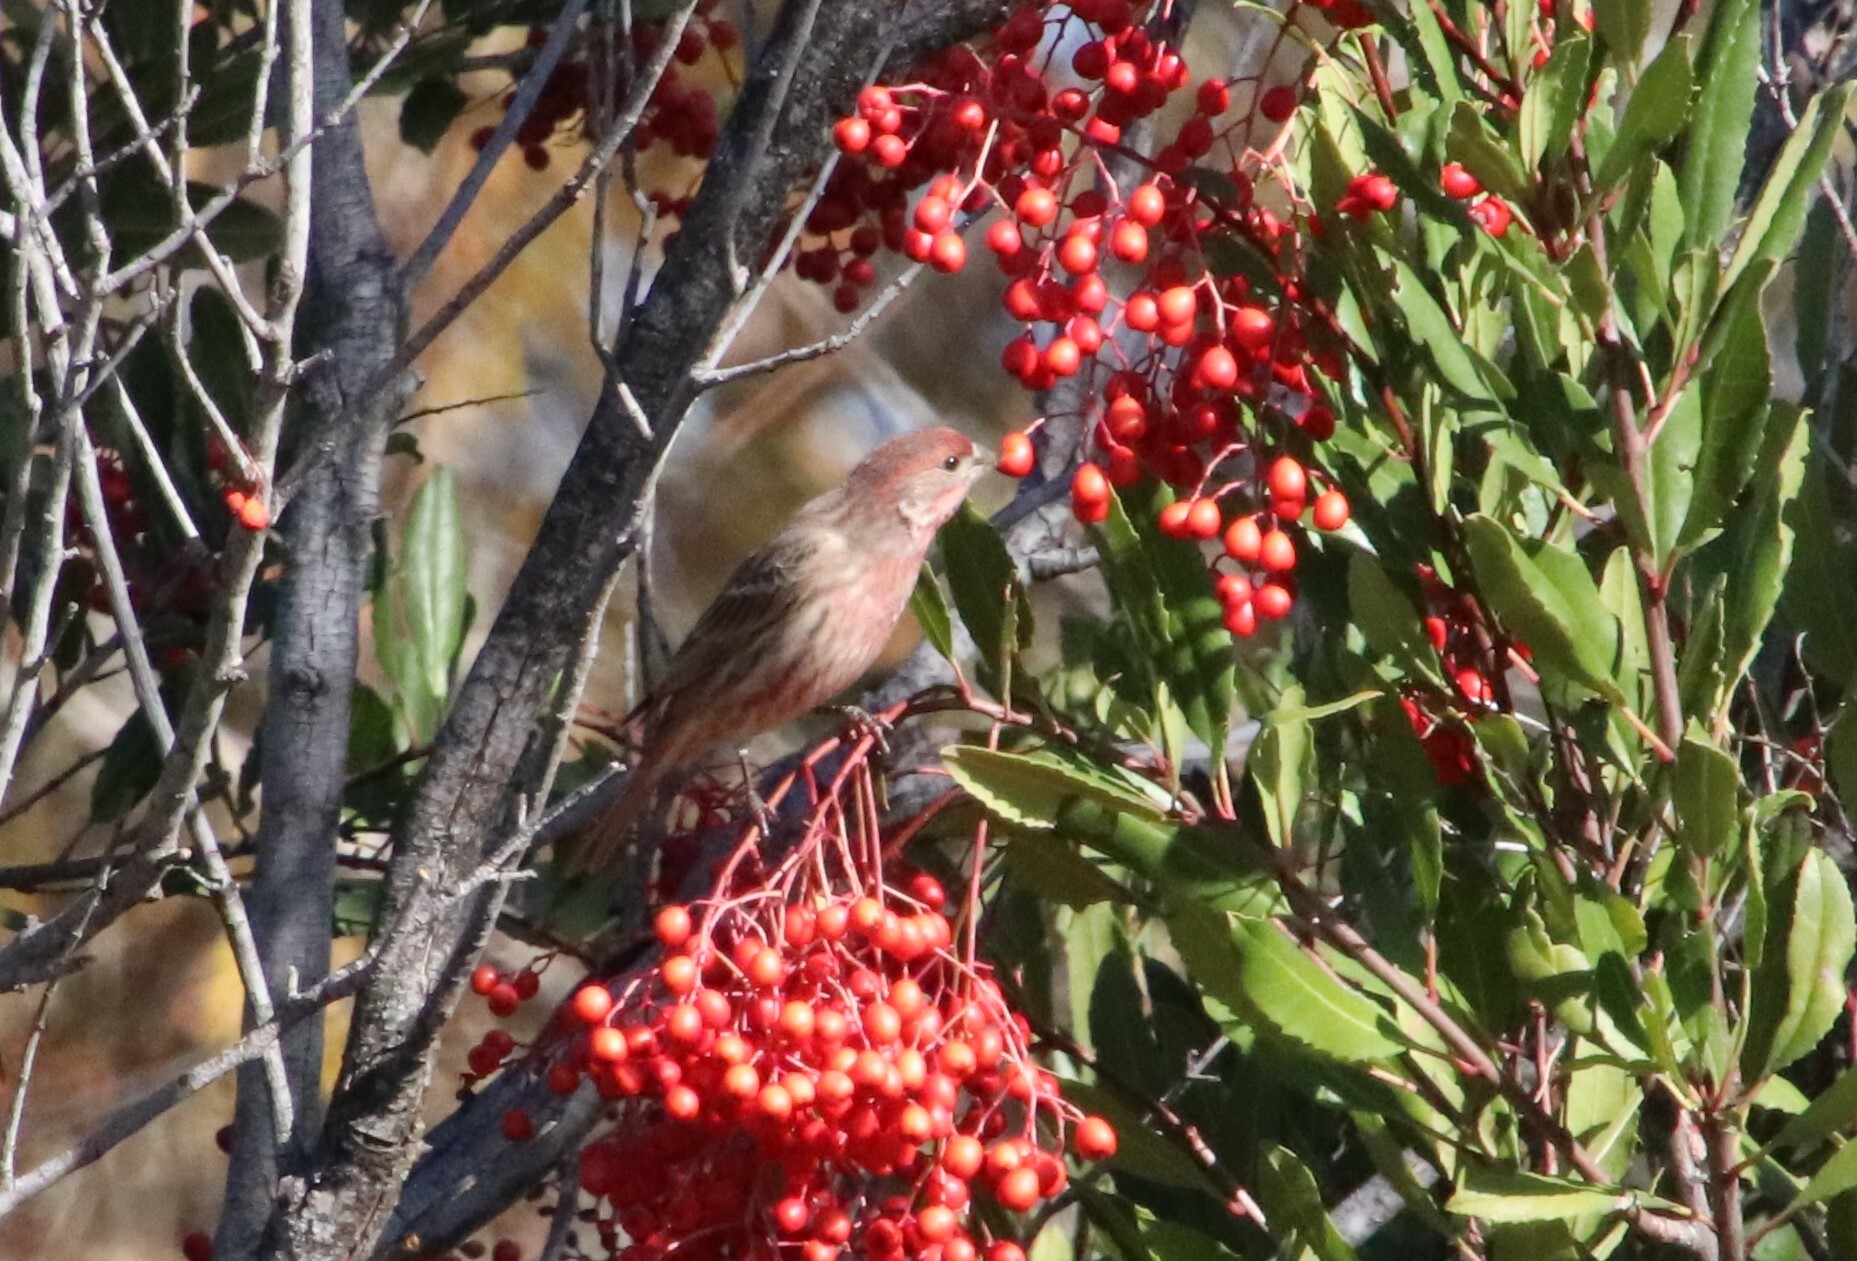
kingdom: Animalia
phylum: Chordata
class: Aves
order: Passeriformes
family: Fringillidae
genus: Haemorhous
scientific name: Haemorhous mexicanus
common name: House finch
